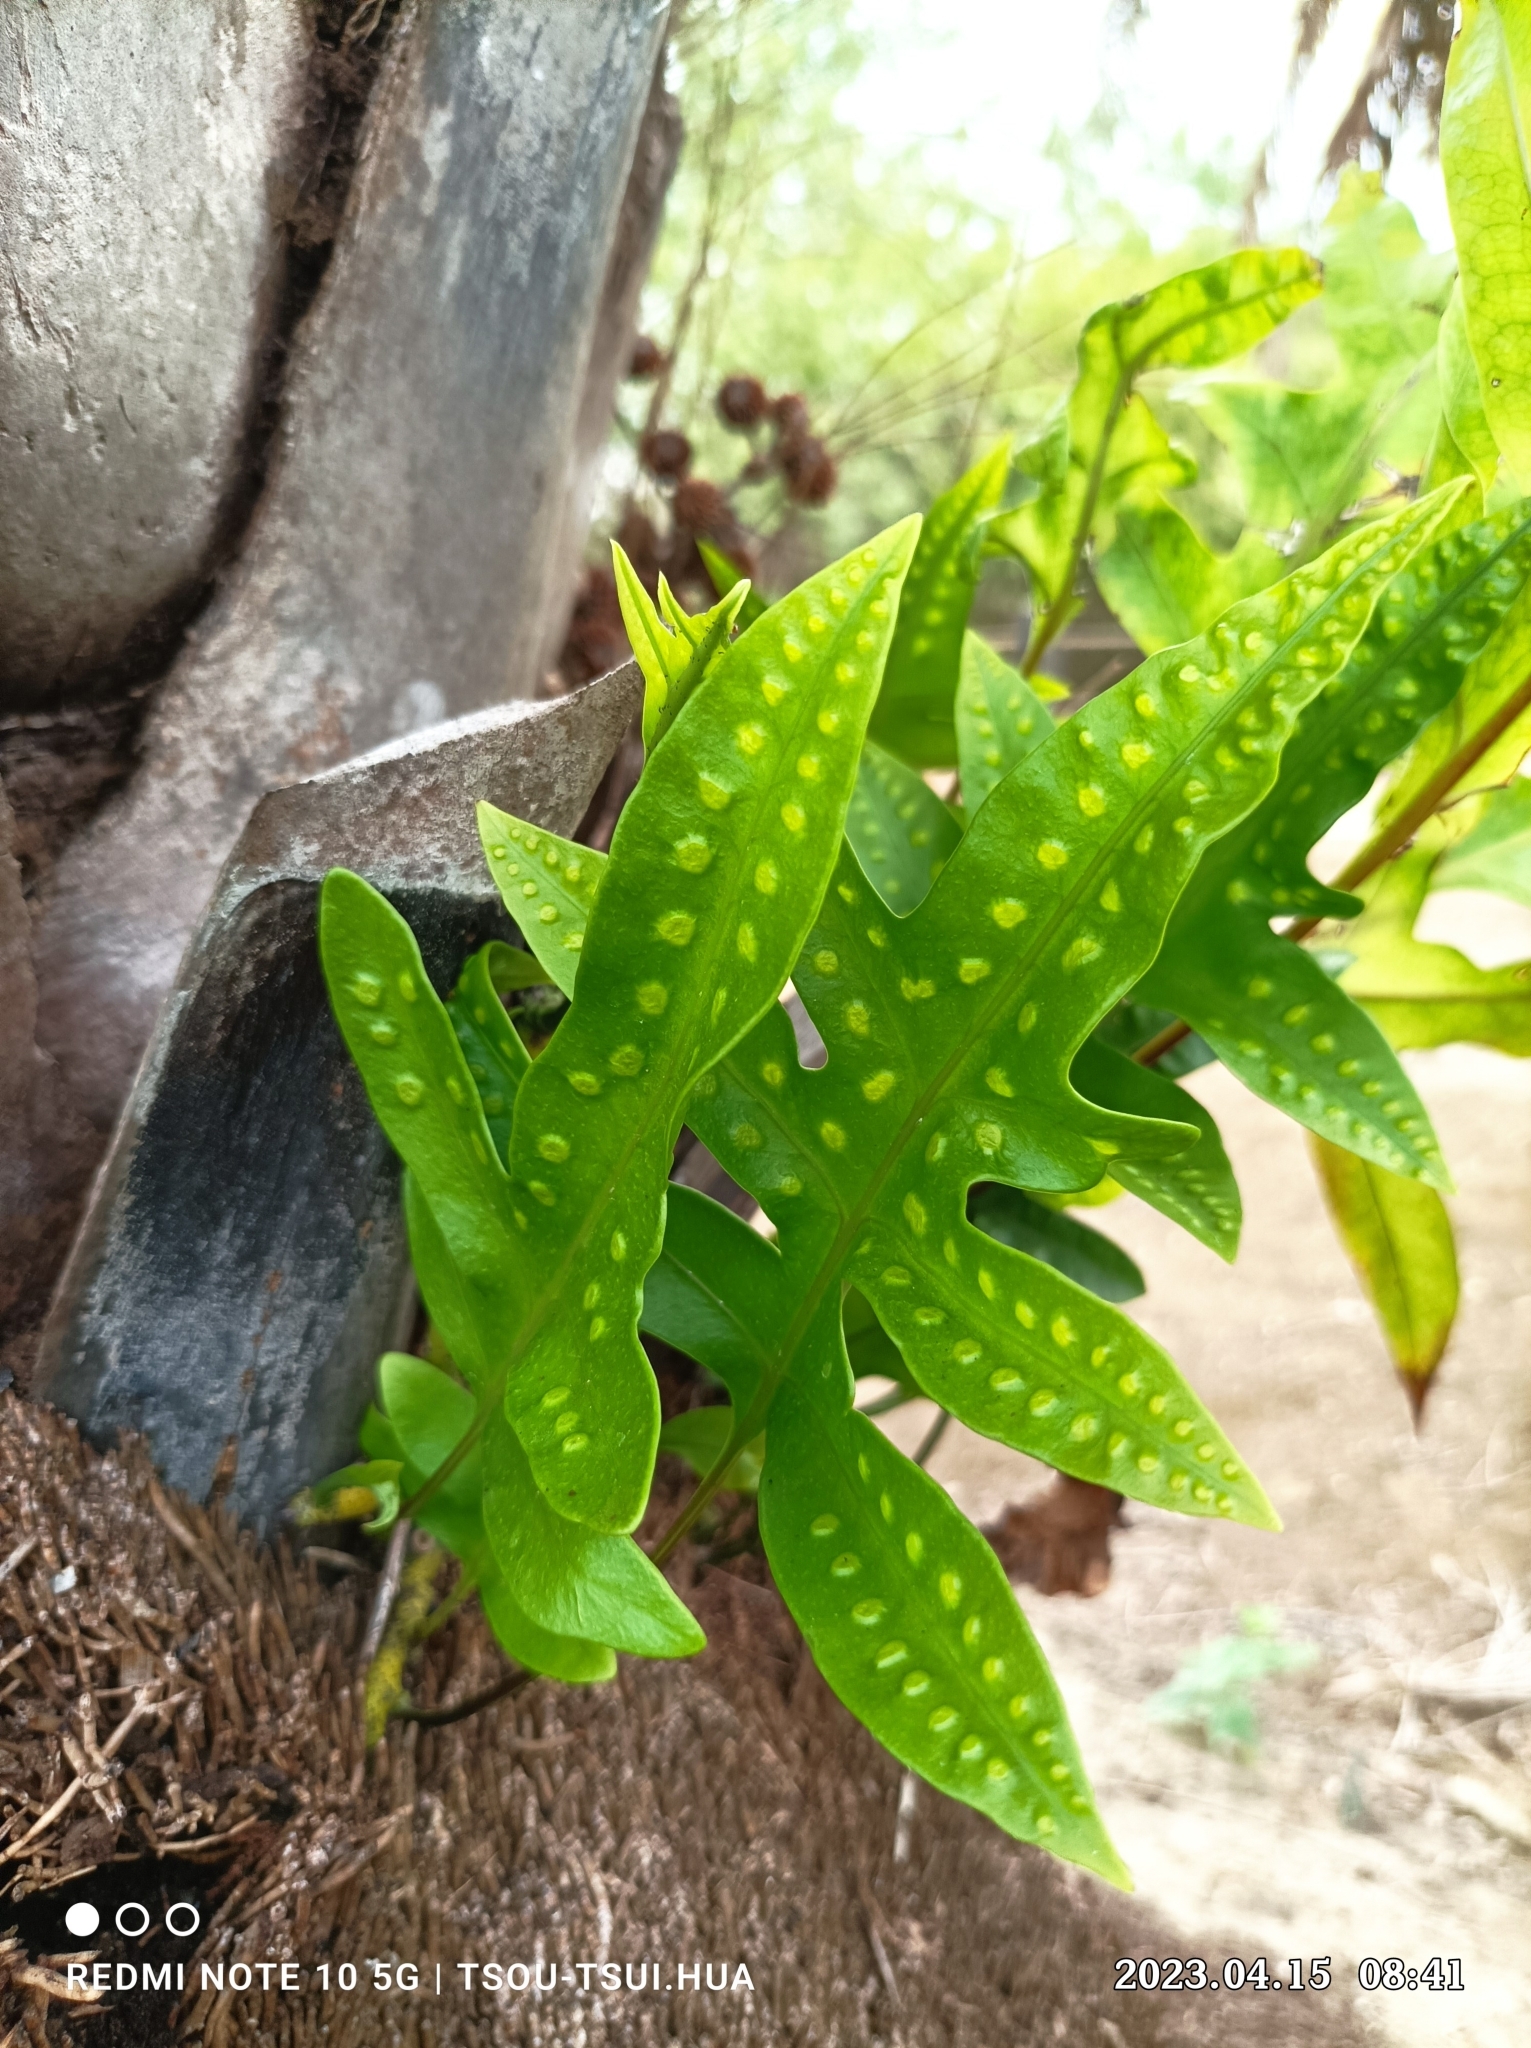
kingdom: Plantae
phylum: Tracheophyta
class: Polypodiopsida
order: Polypodiales
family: Polypodiaceae
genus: Microsorum
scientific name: Microsorum scolopendria
